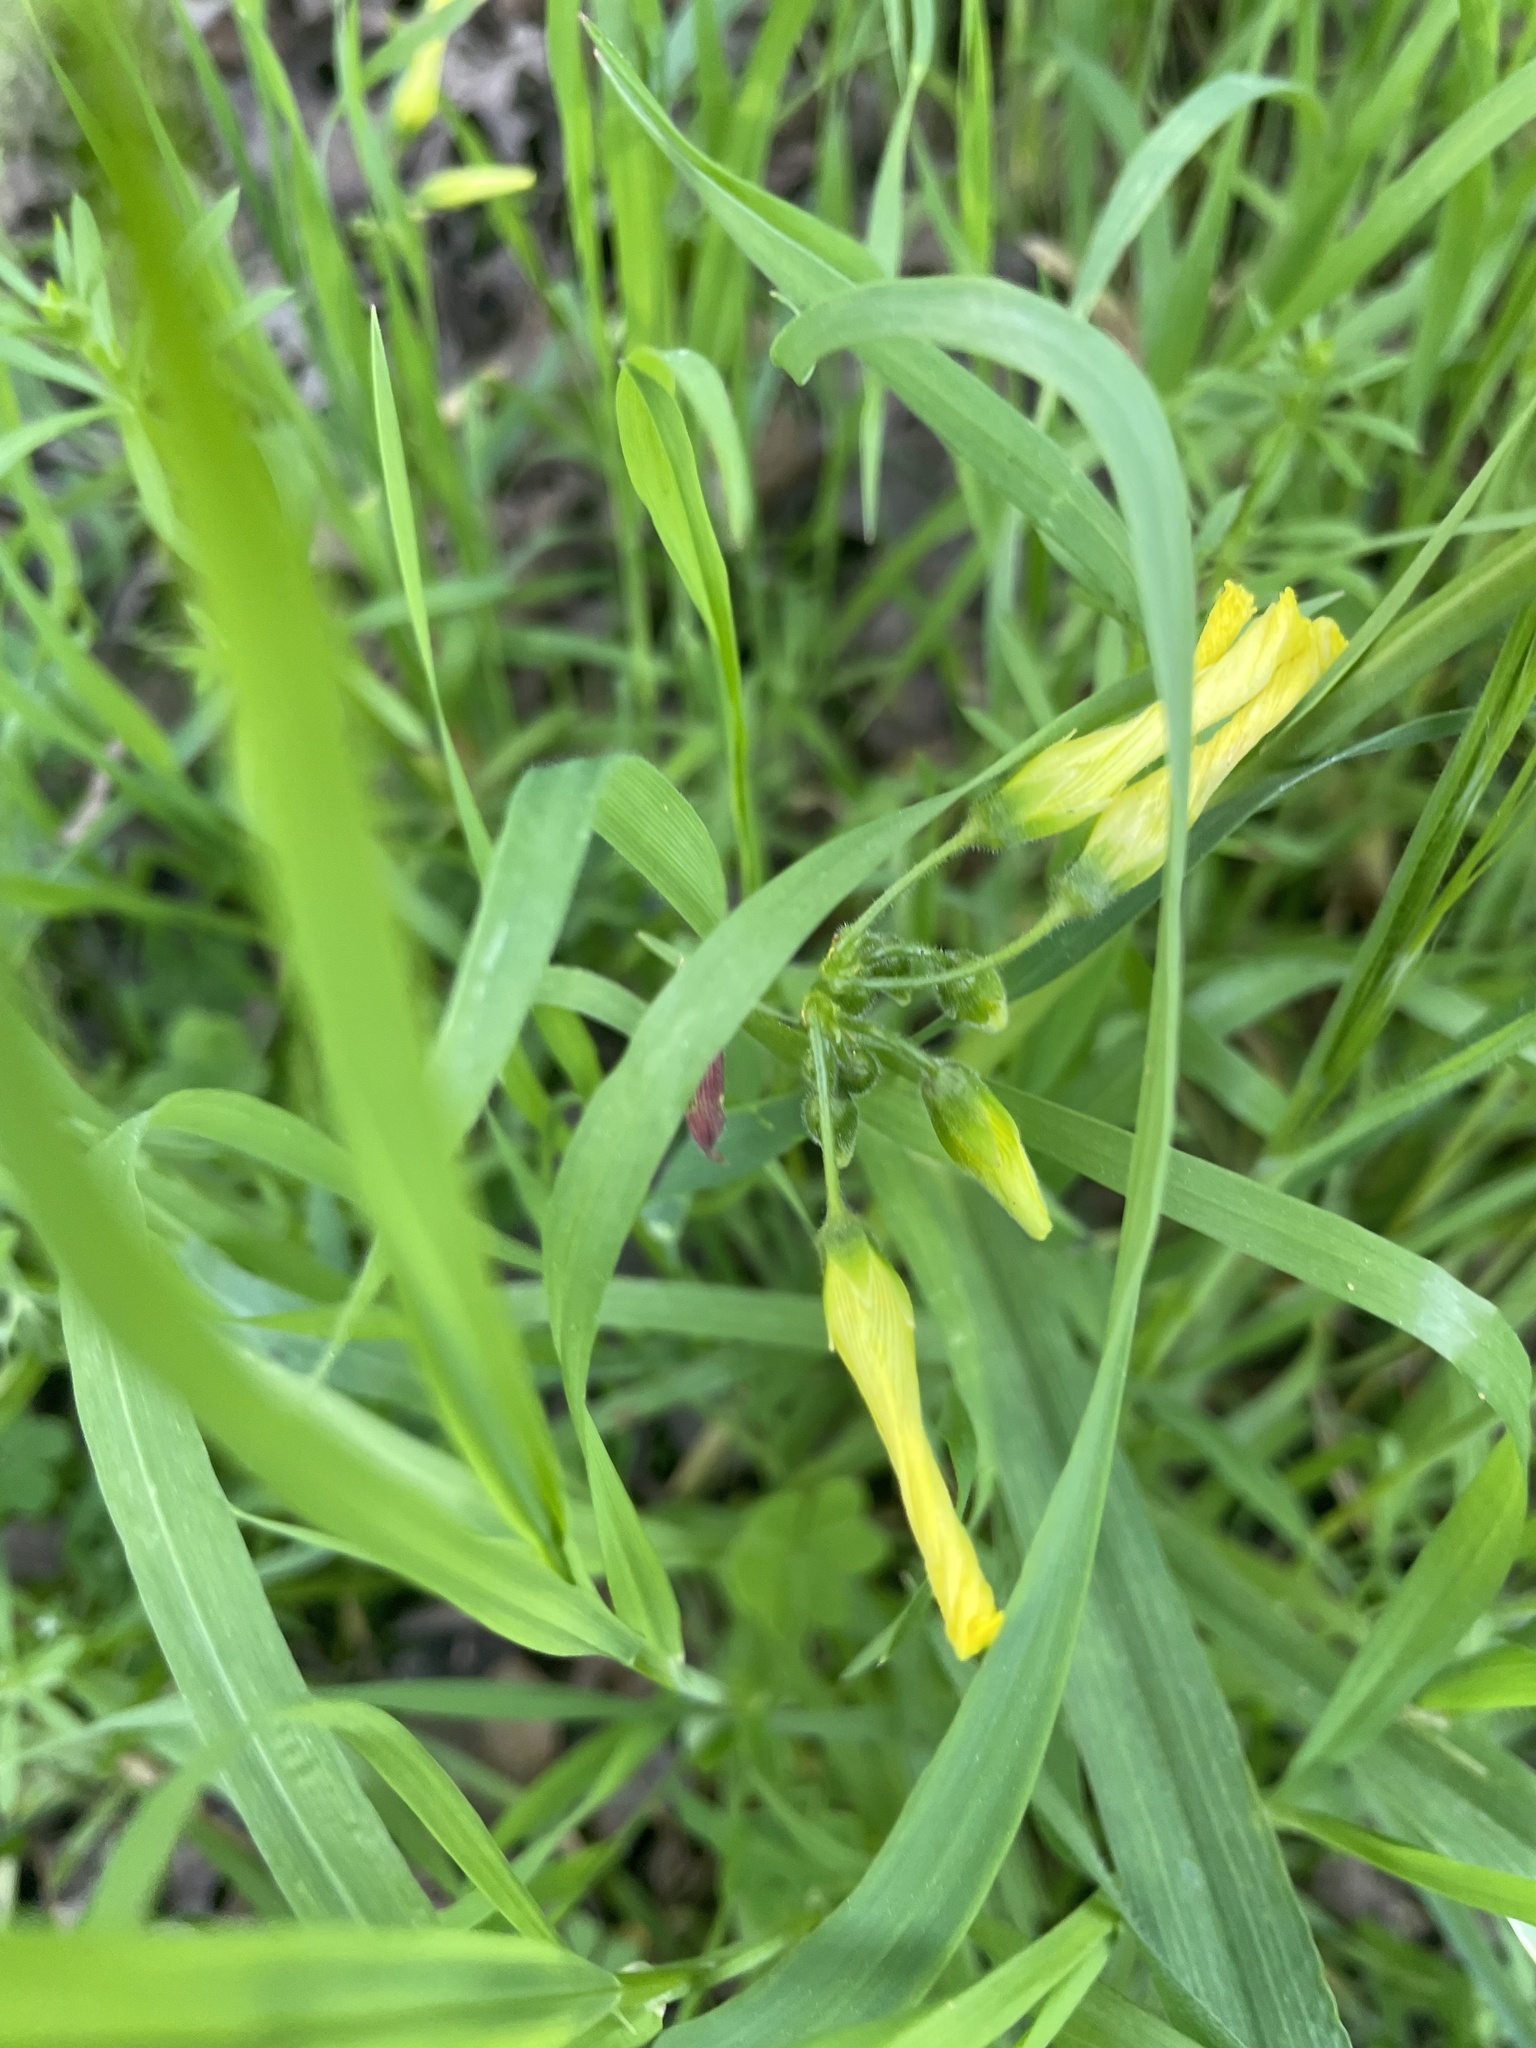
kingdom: Plantae
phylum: Tracheophyta
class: Magnoliopsida
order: Oxalidales
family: Oxalidaceae
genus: Oxalis
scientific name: Oxalis pes-caprae
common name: Bermuda-buttercup
